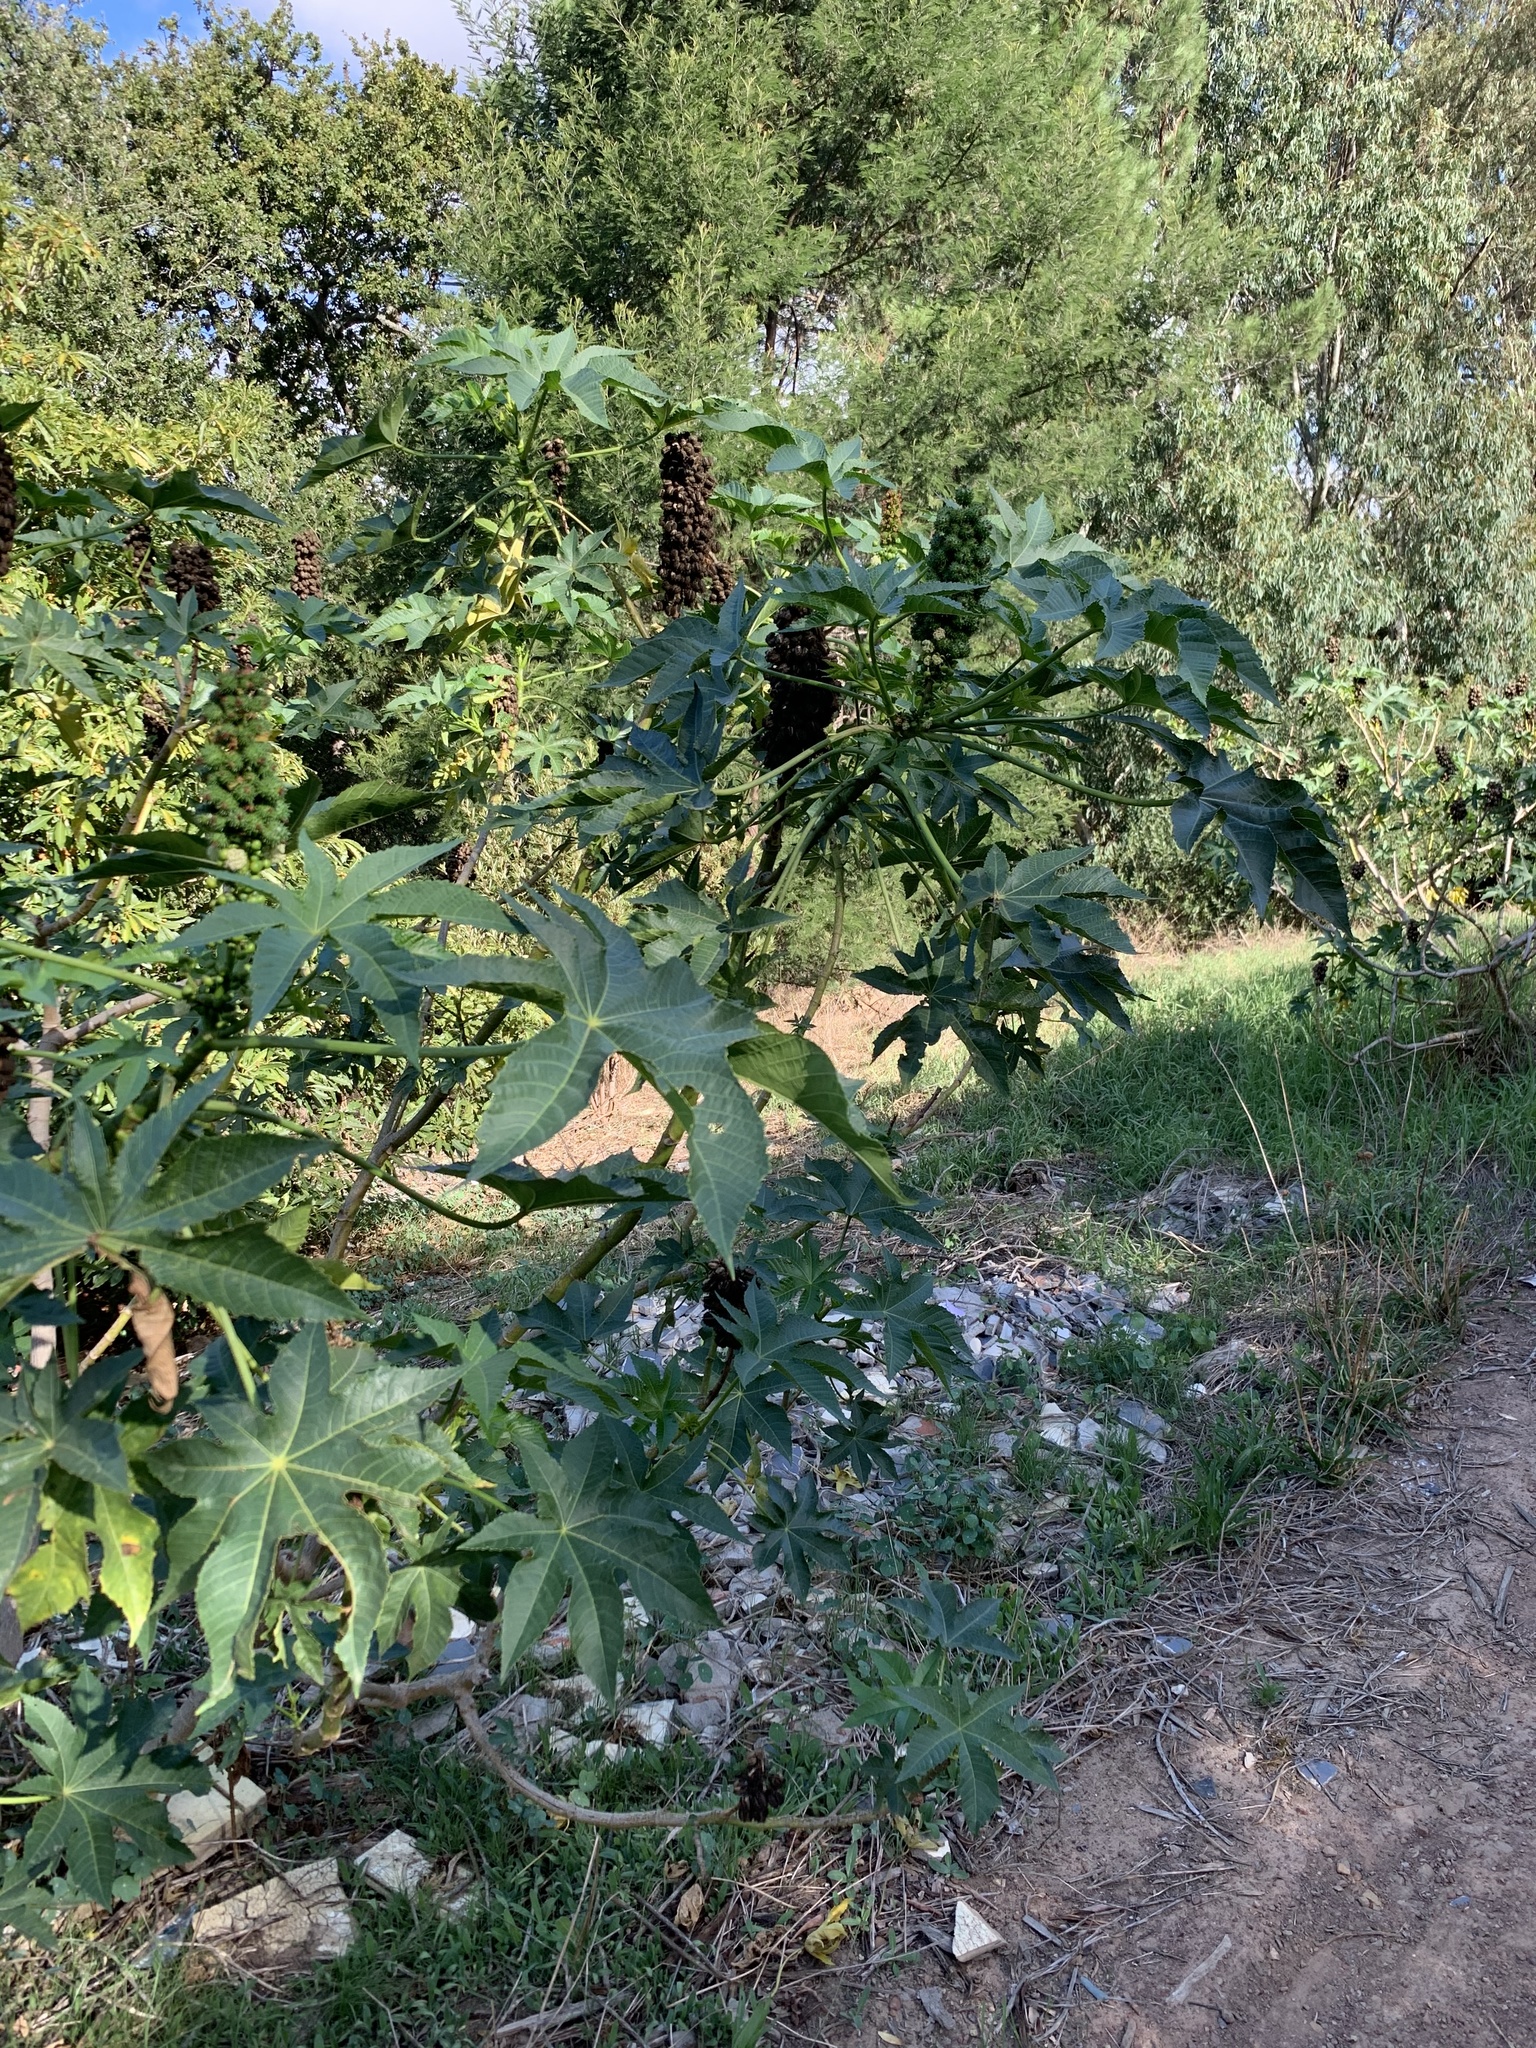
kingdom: Plantae
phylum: Tracheophyta
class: Magnoliopsida
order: Malpighiales
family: Euphorbiaceae
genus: Ricinus
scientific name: Ricinus communis
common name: Castor-oil-plant
